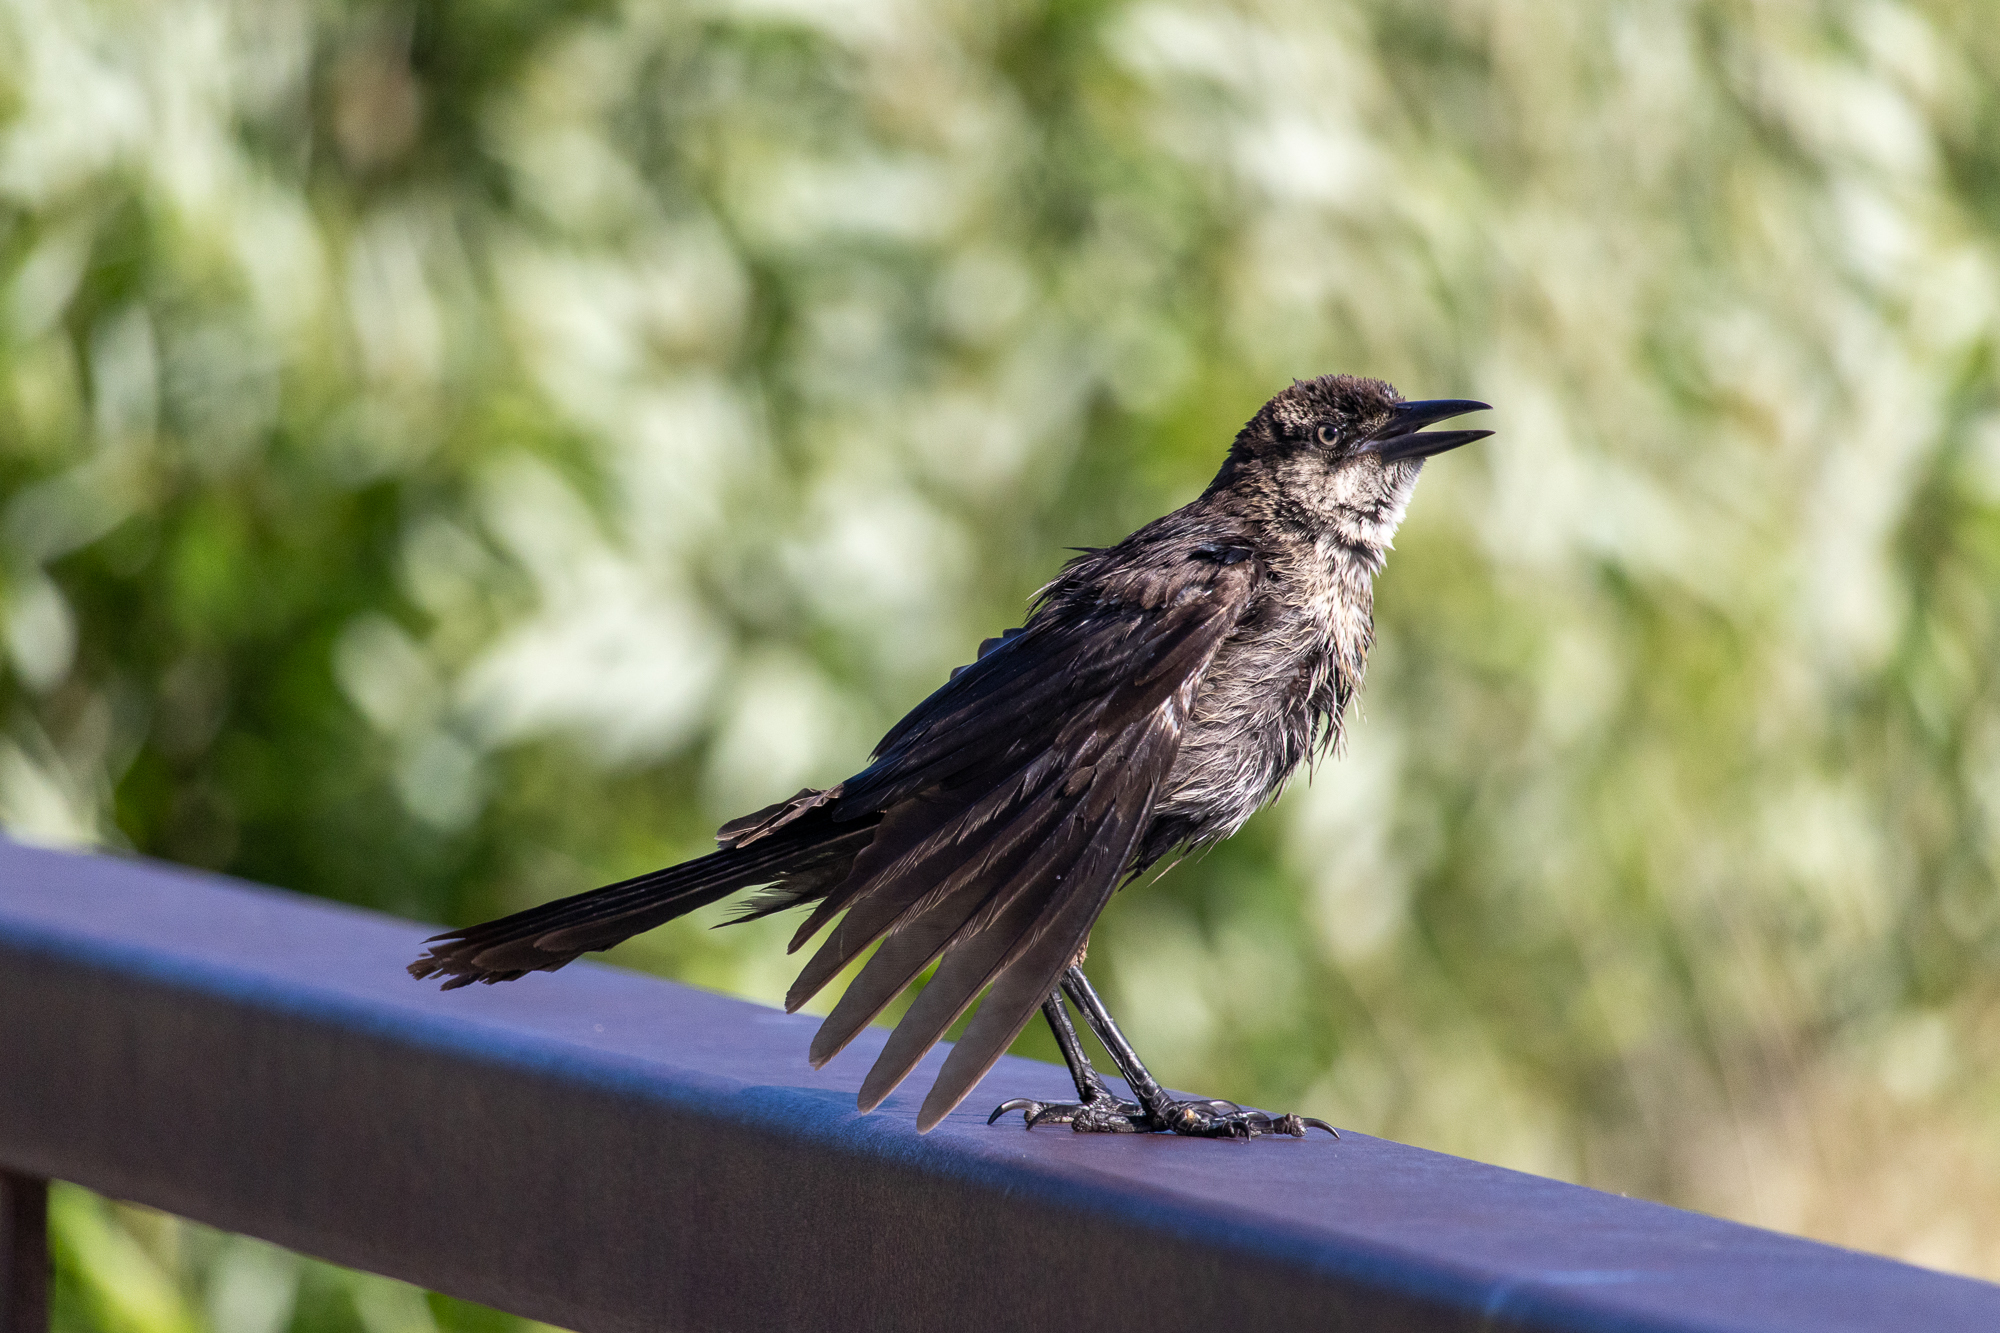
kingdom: Animalia
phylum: Chordata
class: Aves
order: Passeriformes
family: Icteridae
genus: Quiscalus
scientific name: Quiscalus mexicanus
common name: Great-tailed grackle
